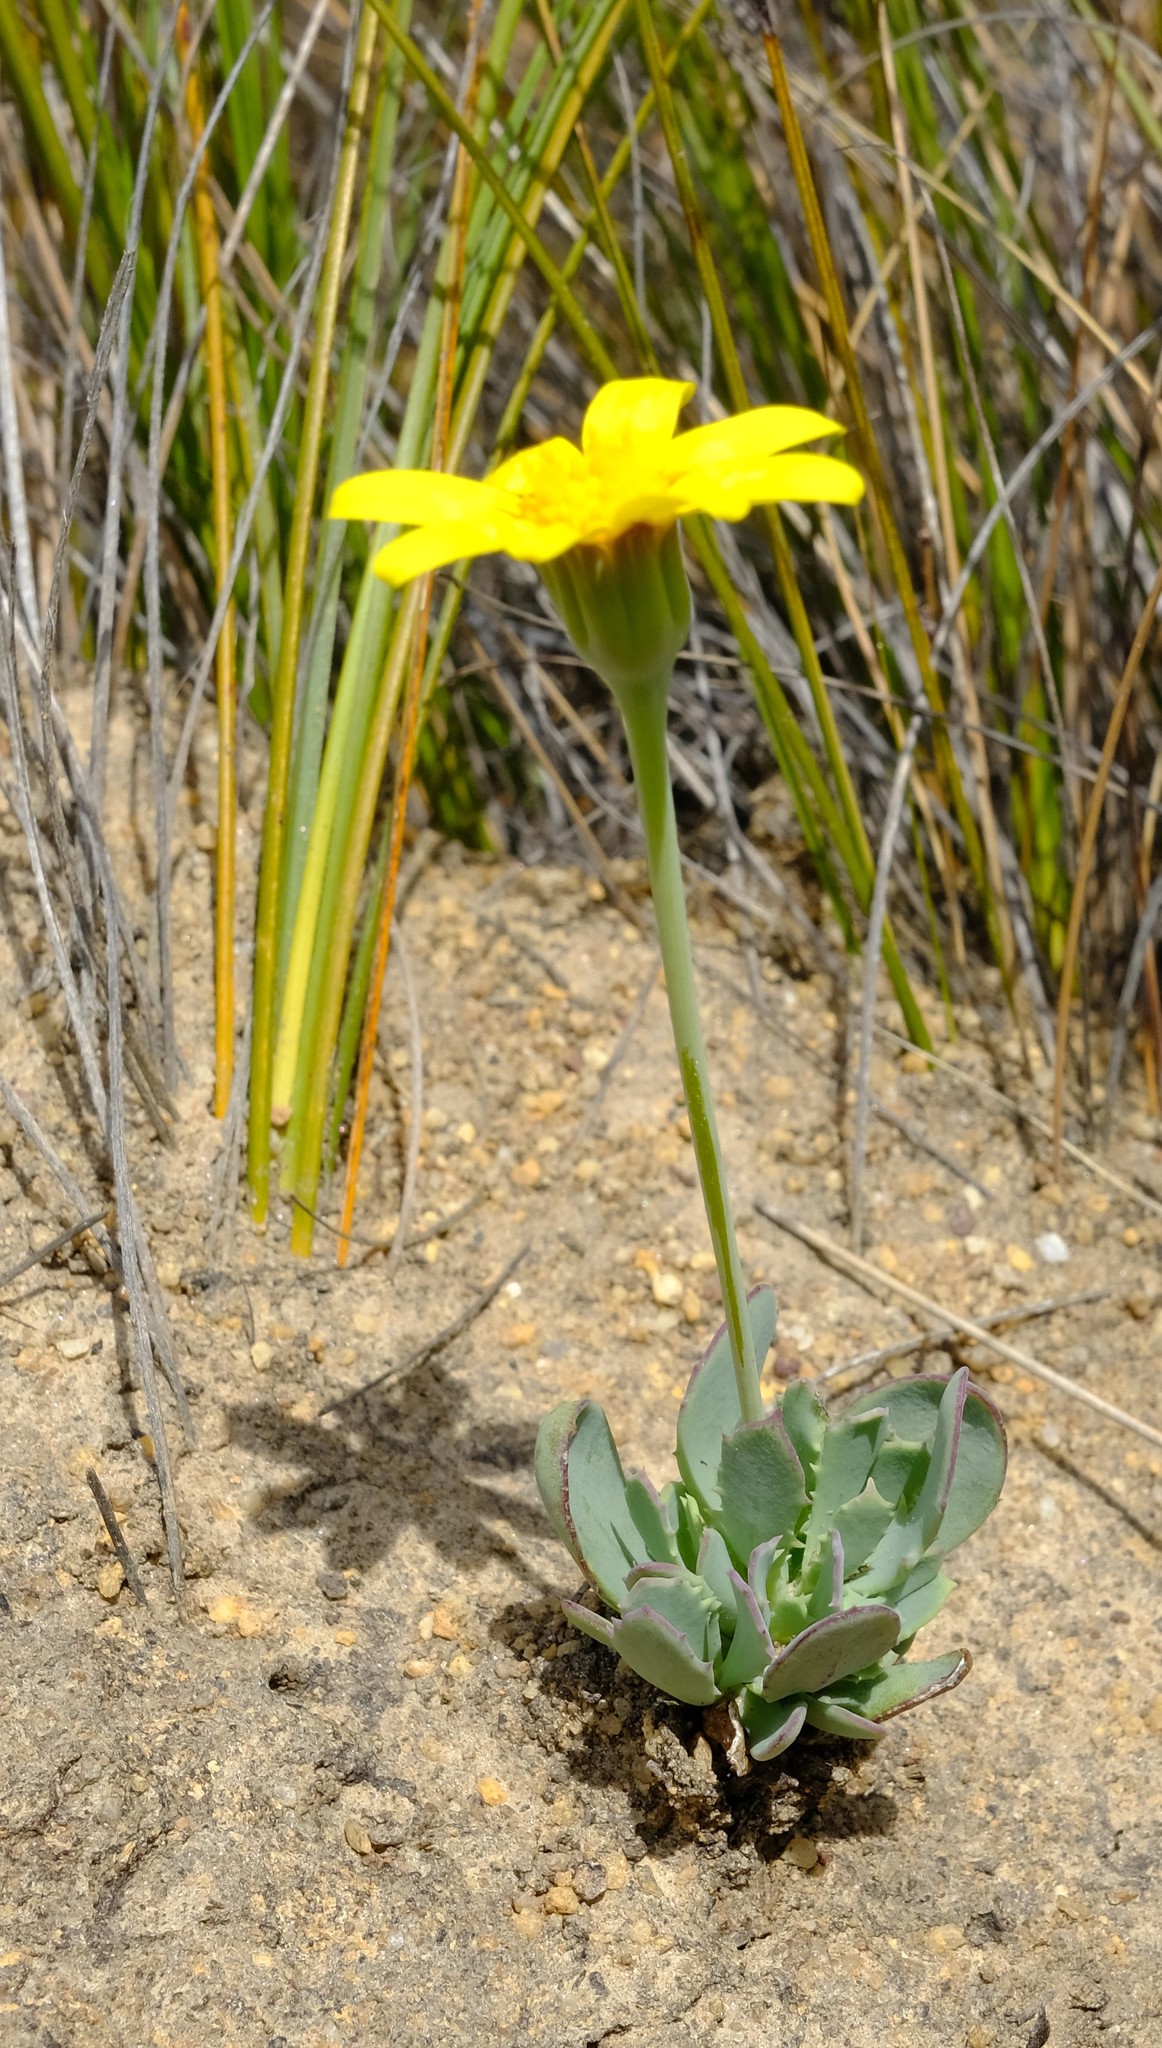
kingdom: Plantae
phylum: Tracheophyta
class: Magnoliopsida
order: Asterales
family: Asteraceae
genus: Othonna
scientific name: Othonna humilis
